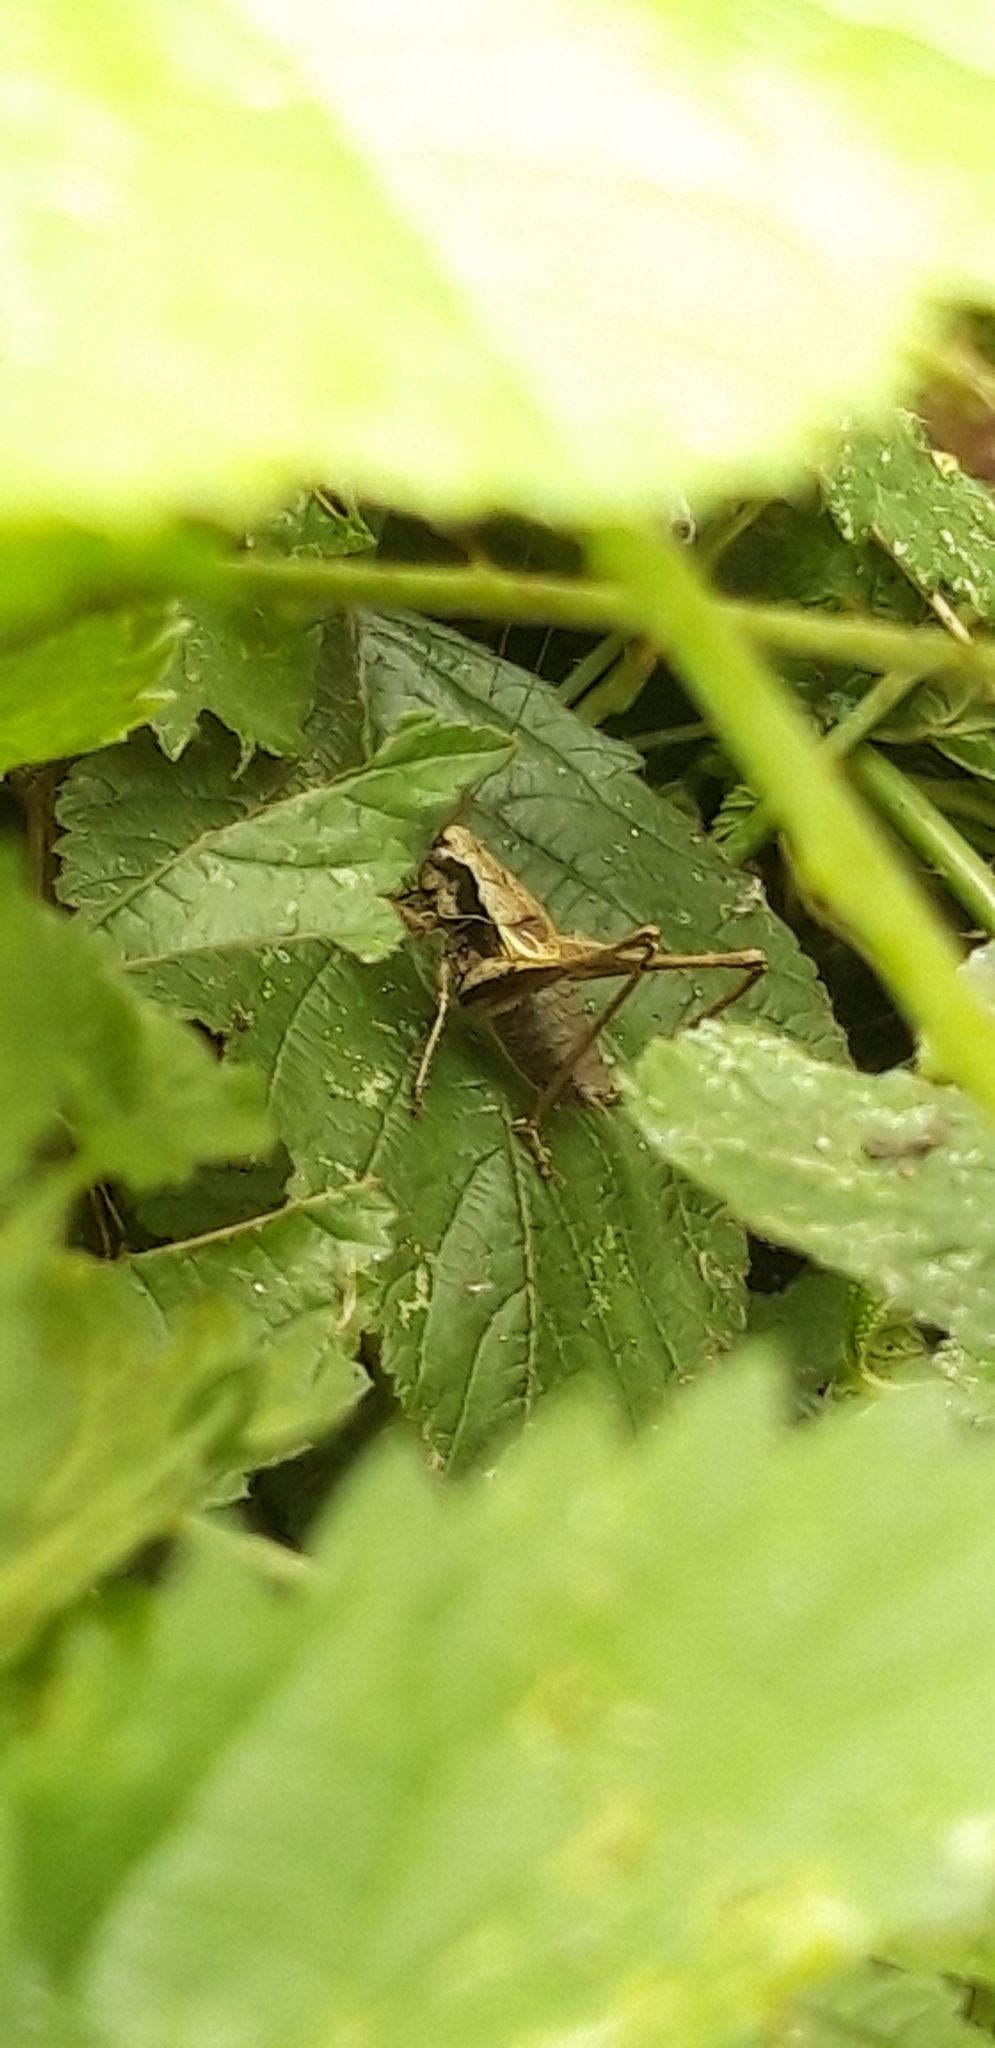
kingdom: Animalia
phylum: Arthropoda
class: Insecta
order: Orthoptera
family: Tettigoniidae
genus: Pholidoptera
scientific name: Pholidoptera griseoaptera
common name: Dark bush-cricket
